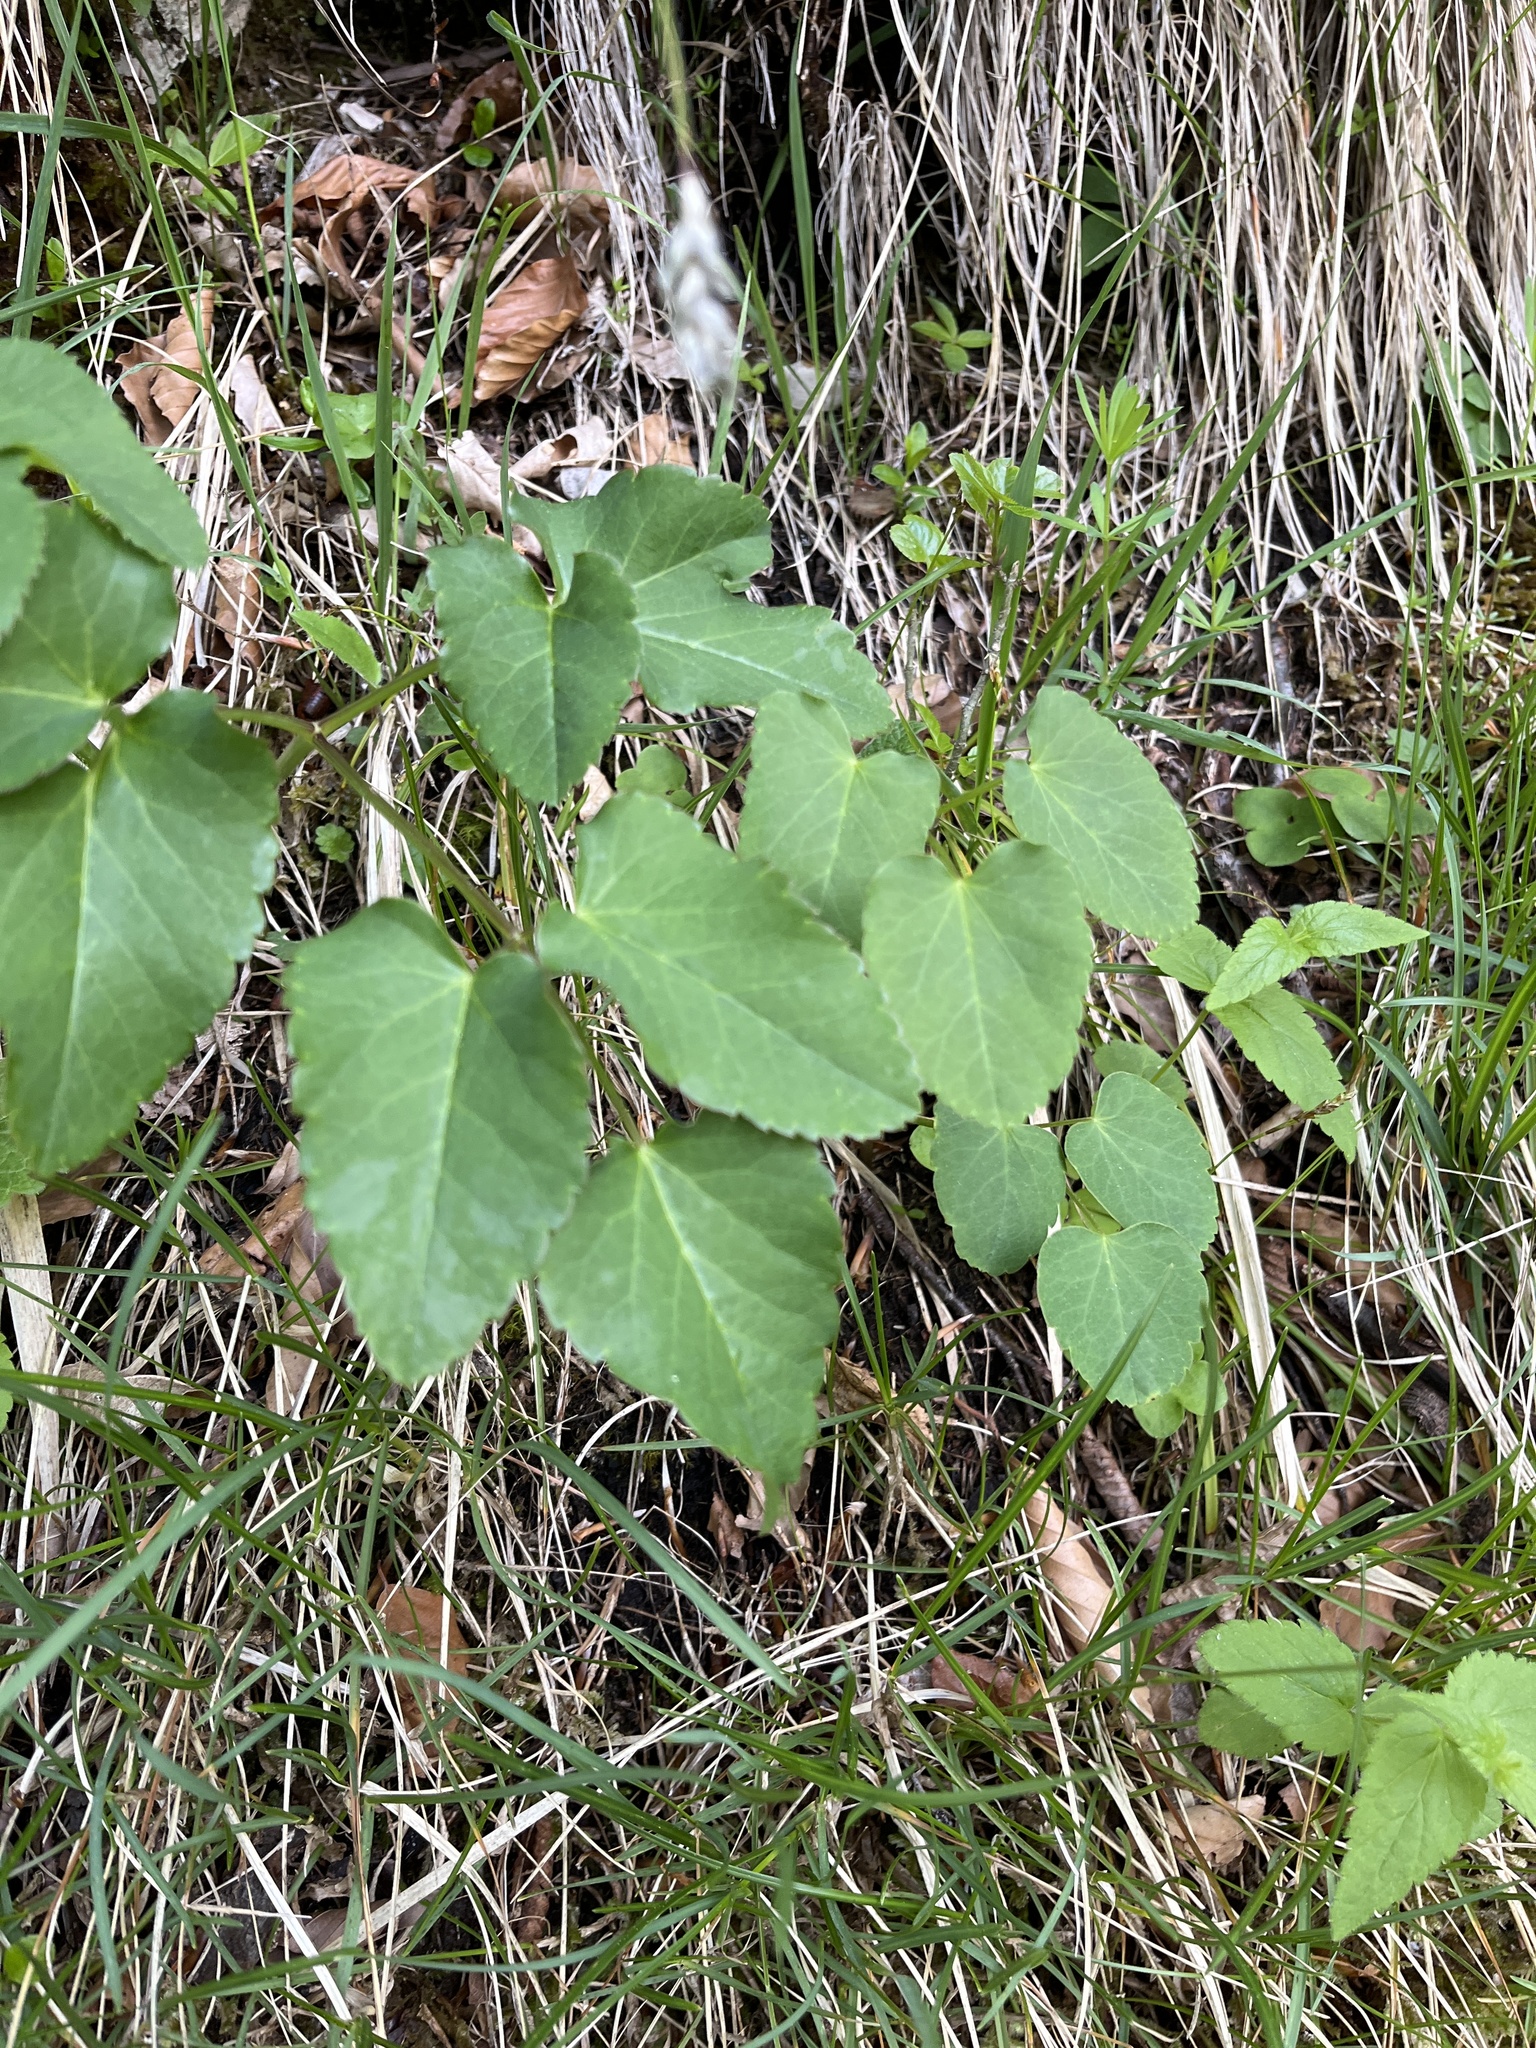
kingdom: Plantae
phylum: Tracheophyta
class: Magnoliopsida
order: Apiales
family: Apiaceae
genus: Laserpitium
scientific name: Laserpitium latifolium
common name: Broadleaf sermountain
